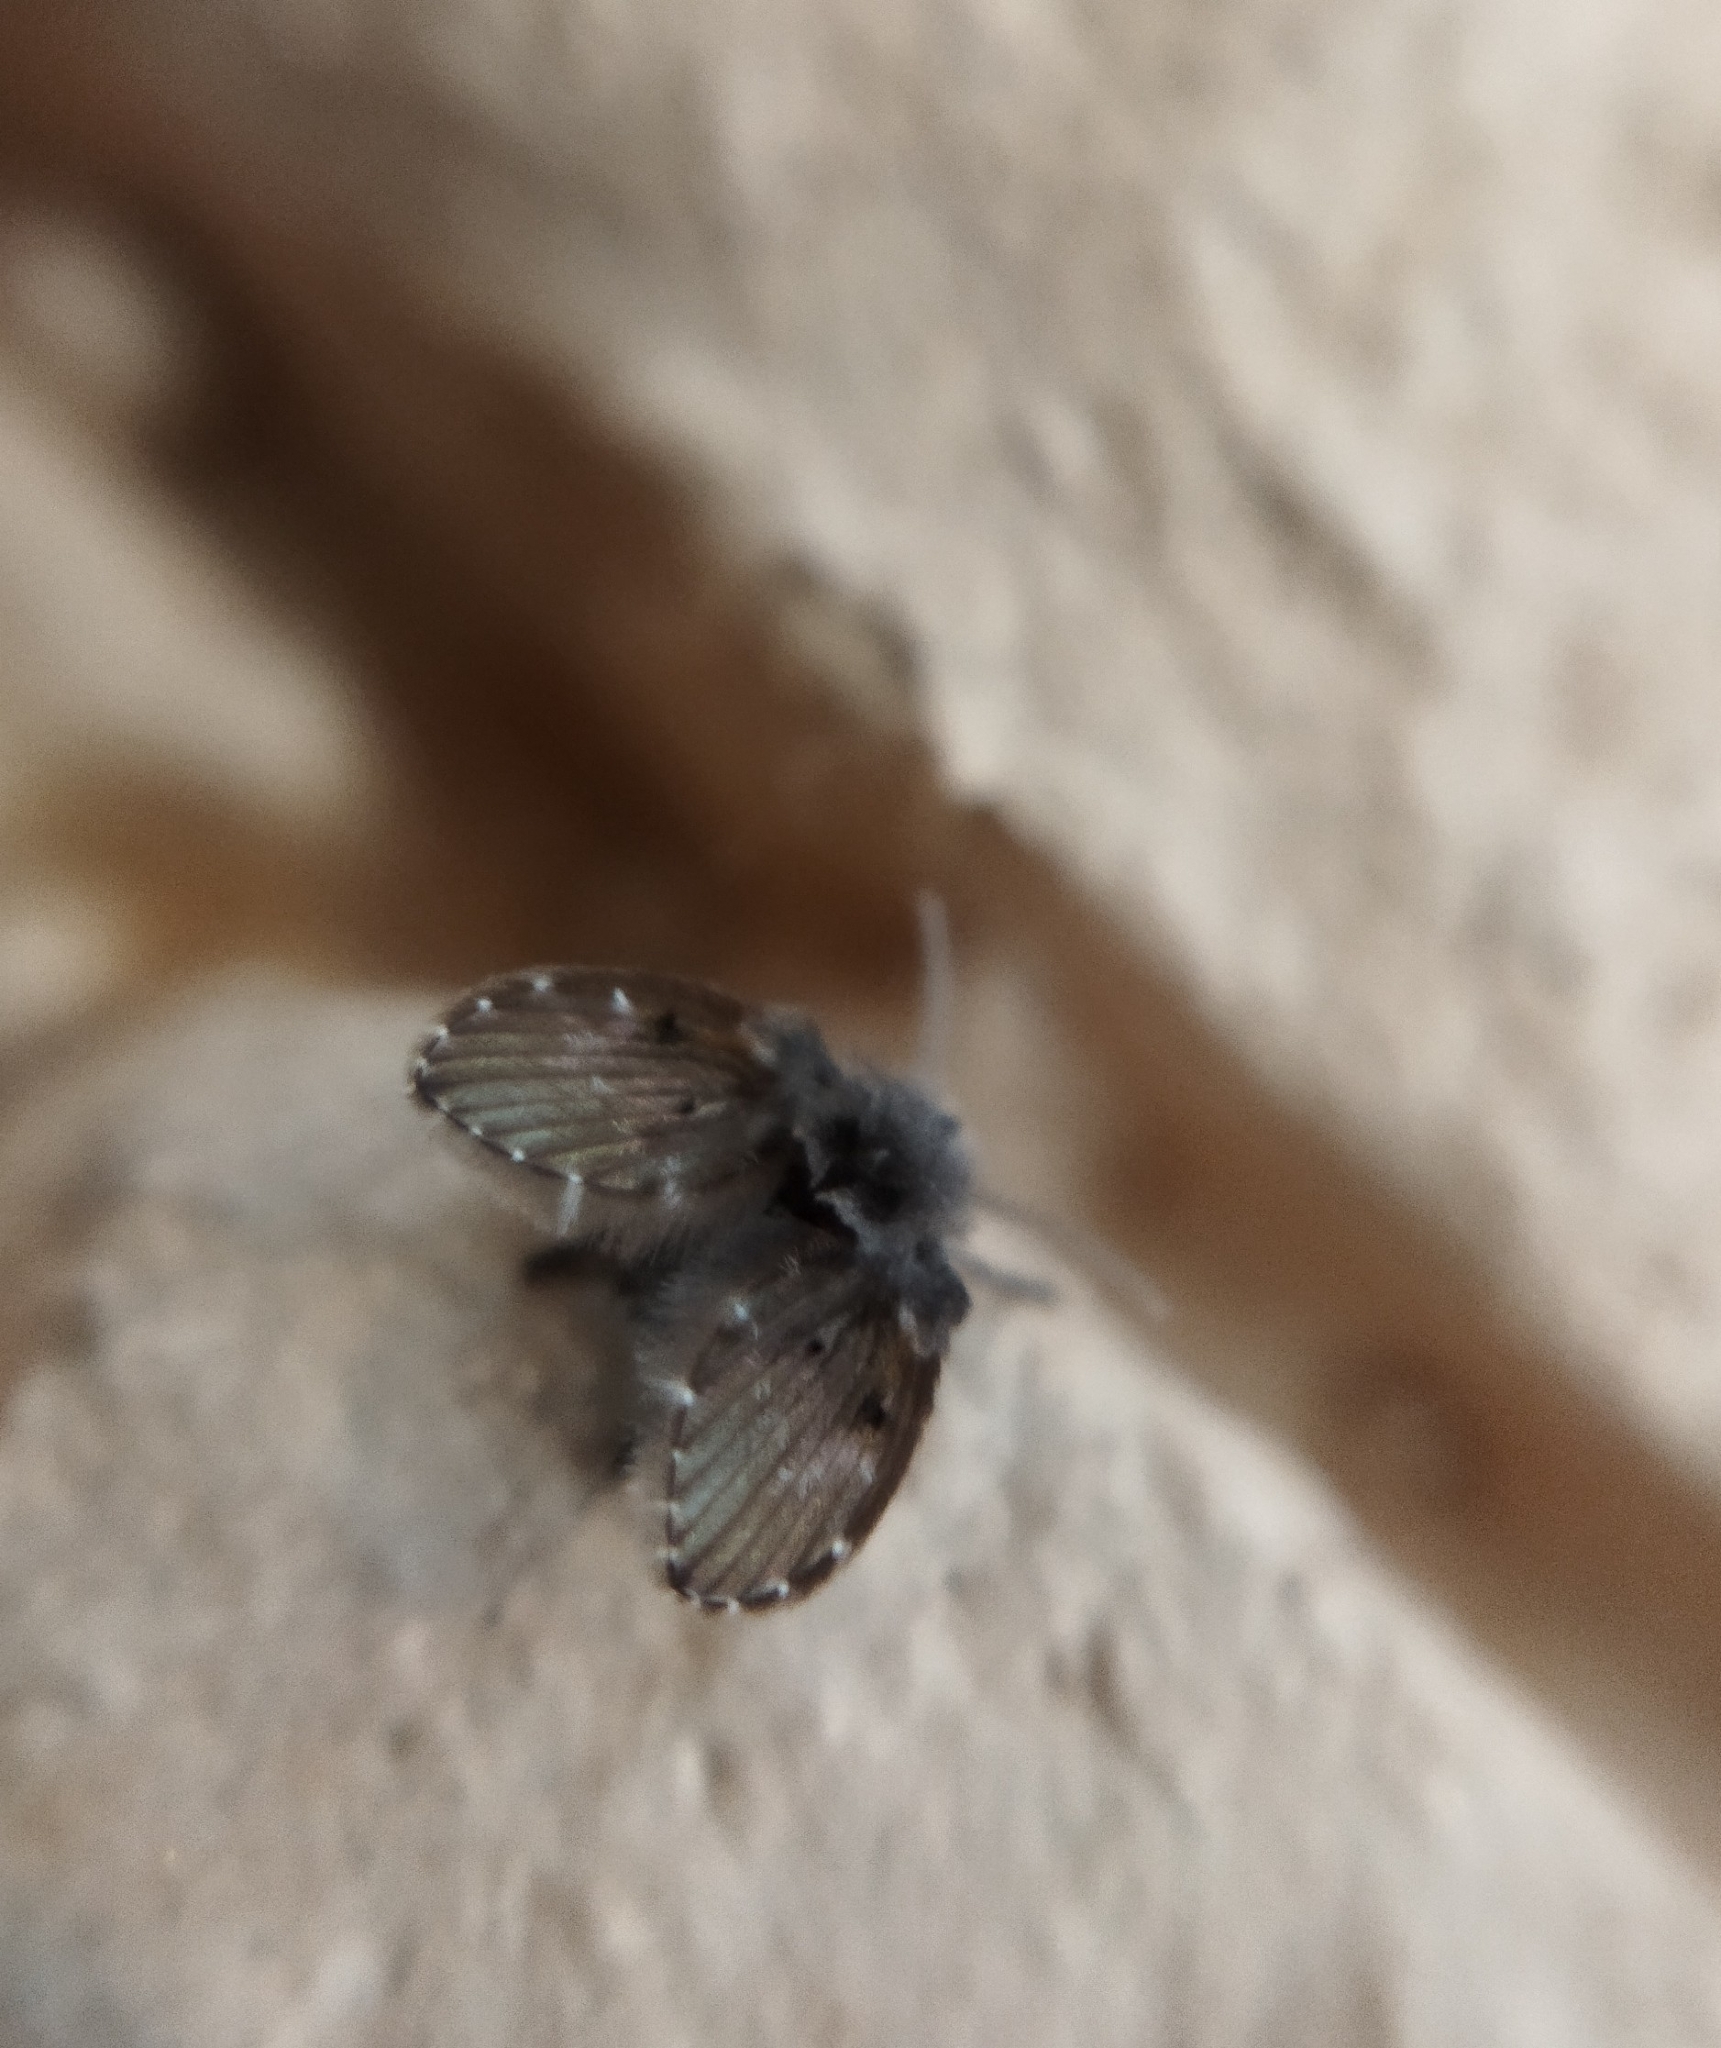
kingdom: Animalia
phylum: Arthropoda
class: Insecta
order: Diptera
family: Psychodidae
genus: Clogmia
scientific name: Clogmia albipunctatus
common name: White-spotted moth fly
